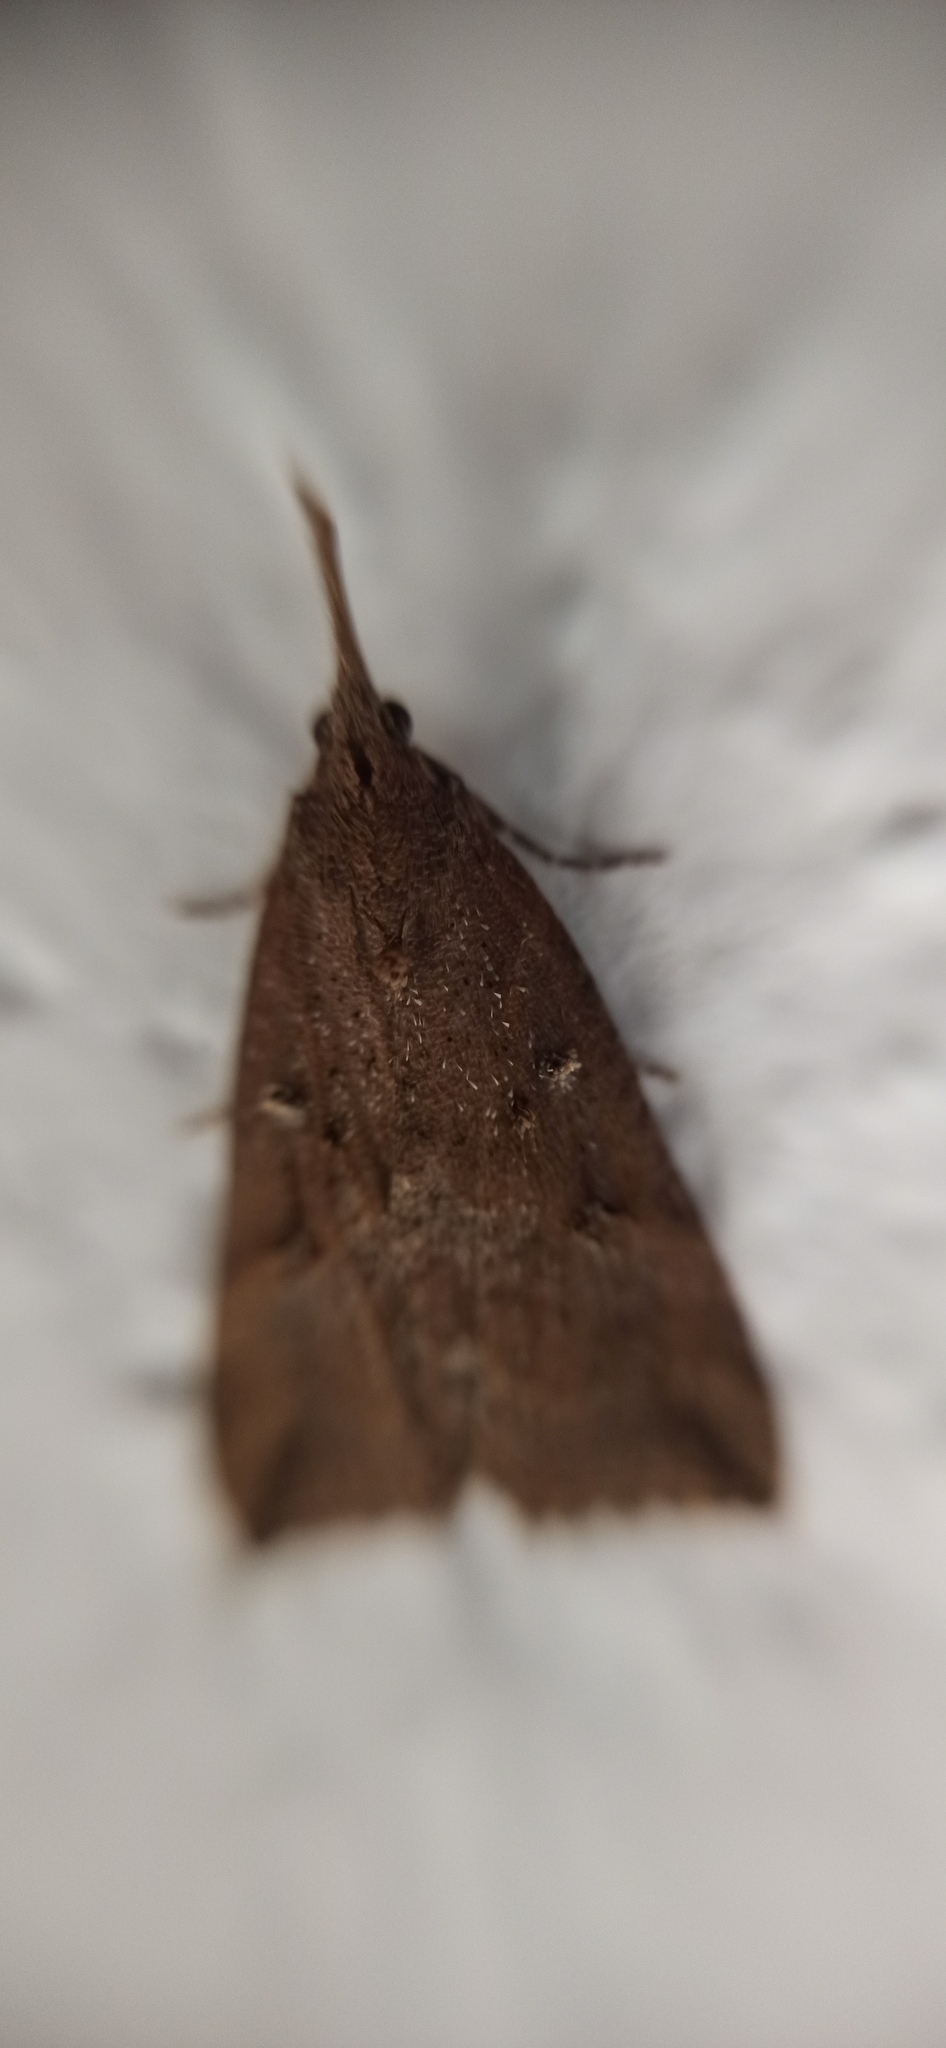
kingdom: Animalia
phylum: Arthropoda
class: Insecta
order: Lepidoptera
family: Erebidae
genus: Hypena
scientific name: Hypena rostralis
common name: Buttoned snout
